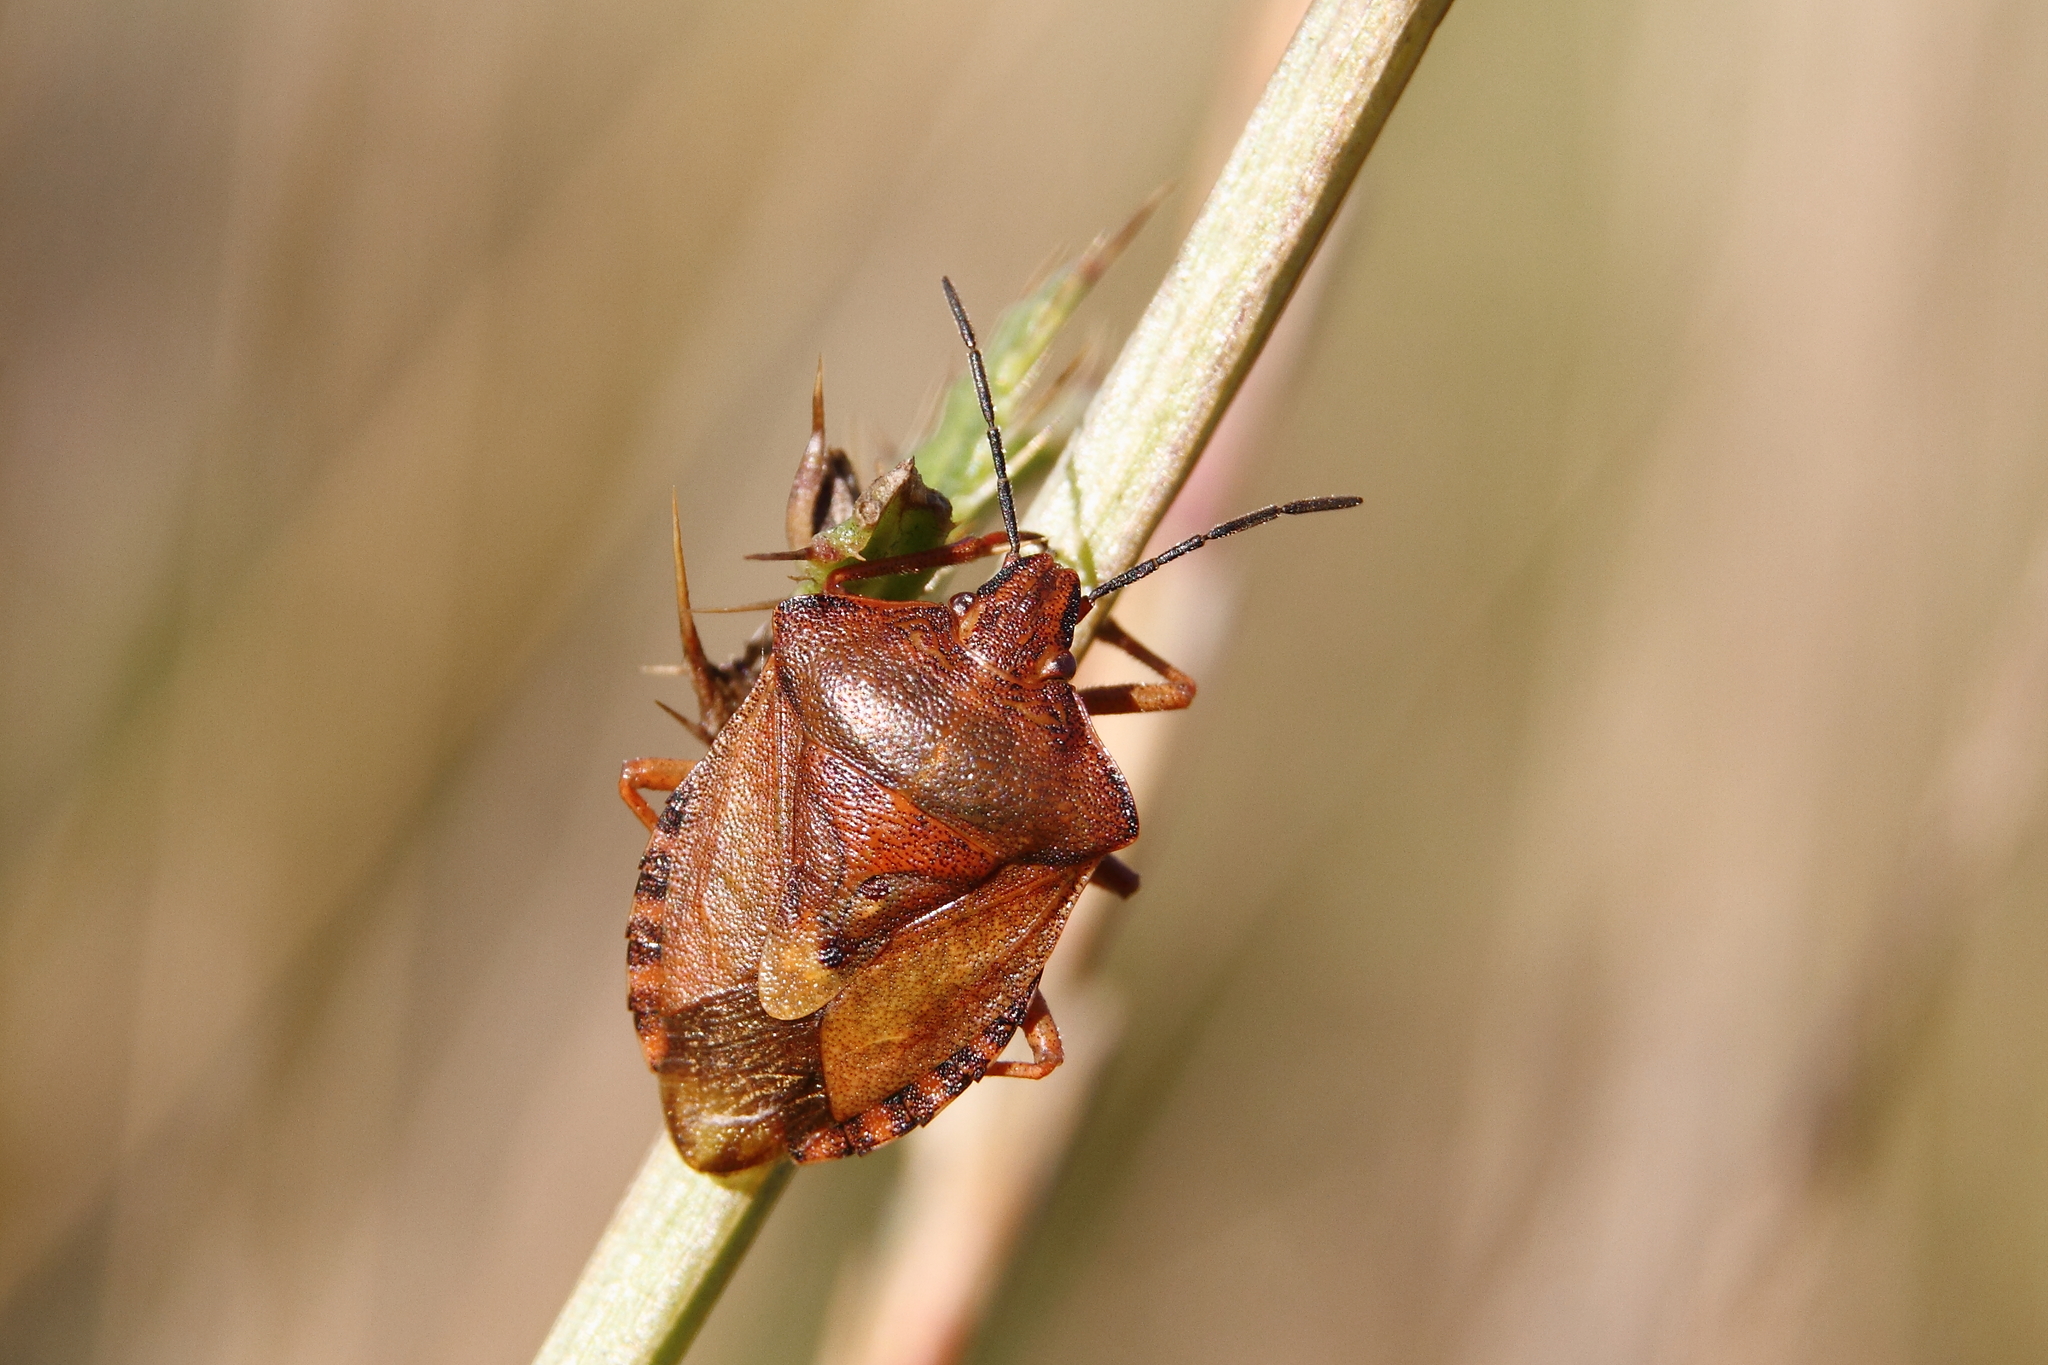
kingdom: Animalia
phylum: Arthropoda
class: Insecta
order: Hemiptera
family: Pentatomidae
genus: Carpocoris
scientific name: Carpocoris purpureipennis
